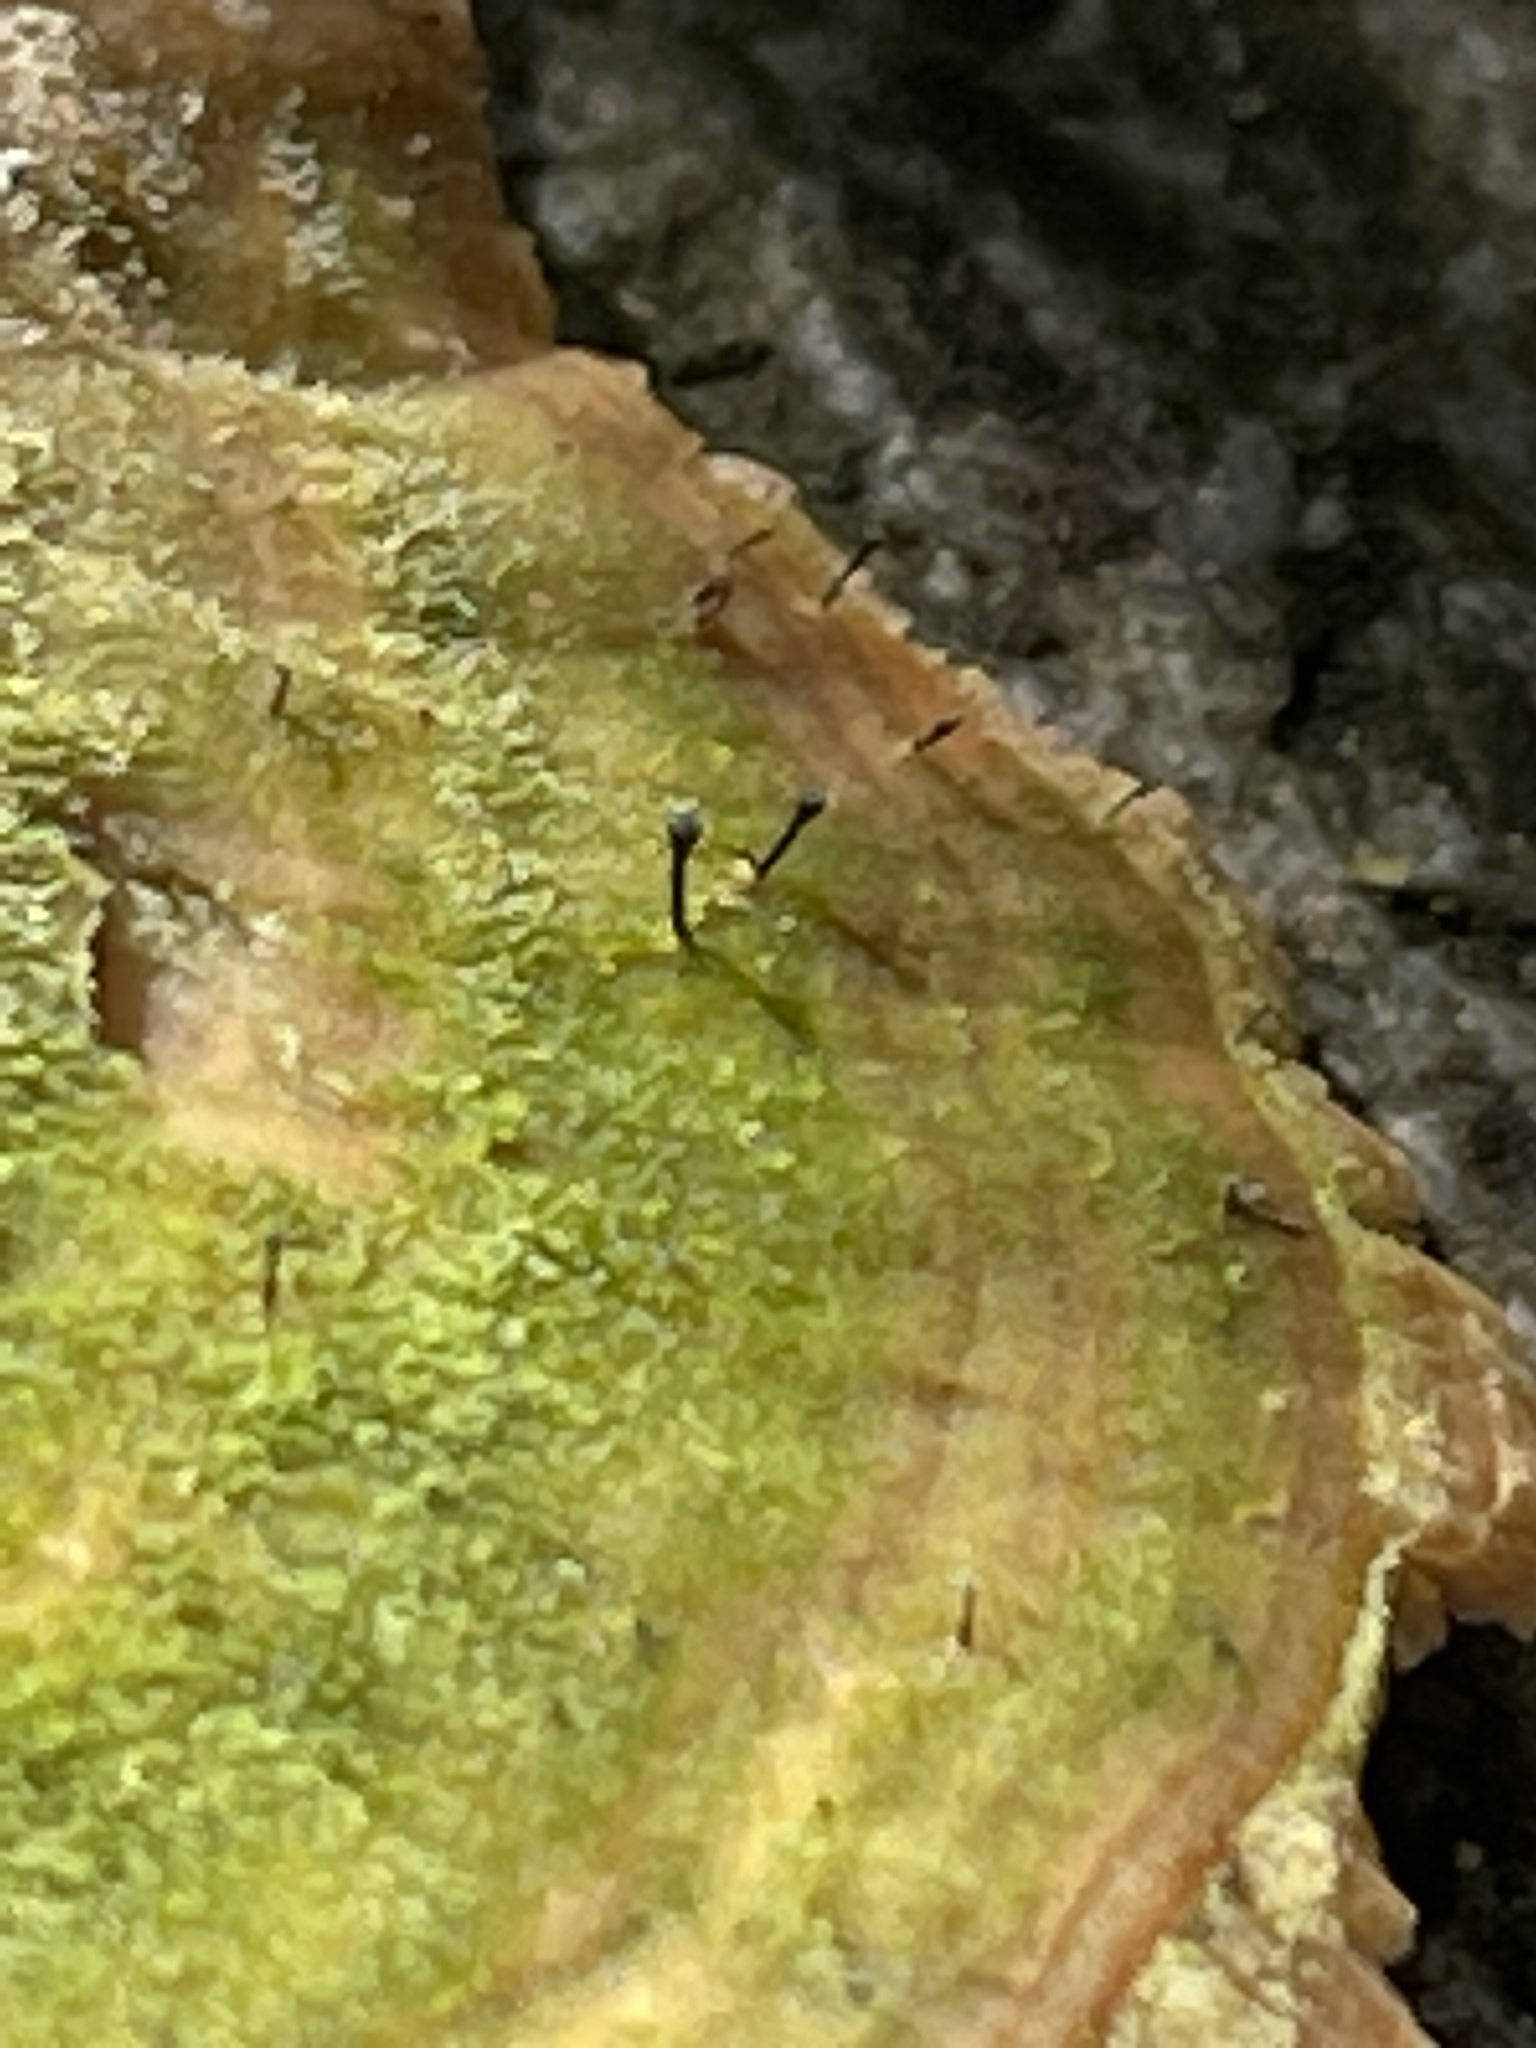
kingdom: Fungi
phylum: Ascomycota
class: Eurotiomycetes
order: Mycocaliciales
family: Mycocaliciaceae
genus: Phaeocalicium
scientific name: Phaeocalicium polyporaeum
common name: Fairy pins
